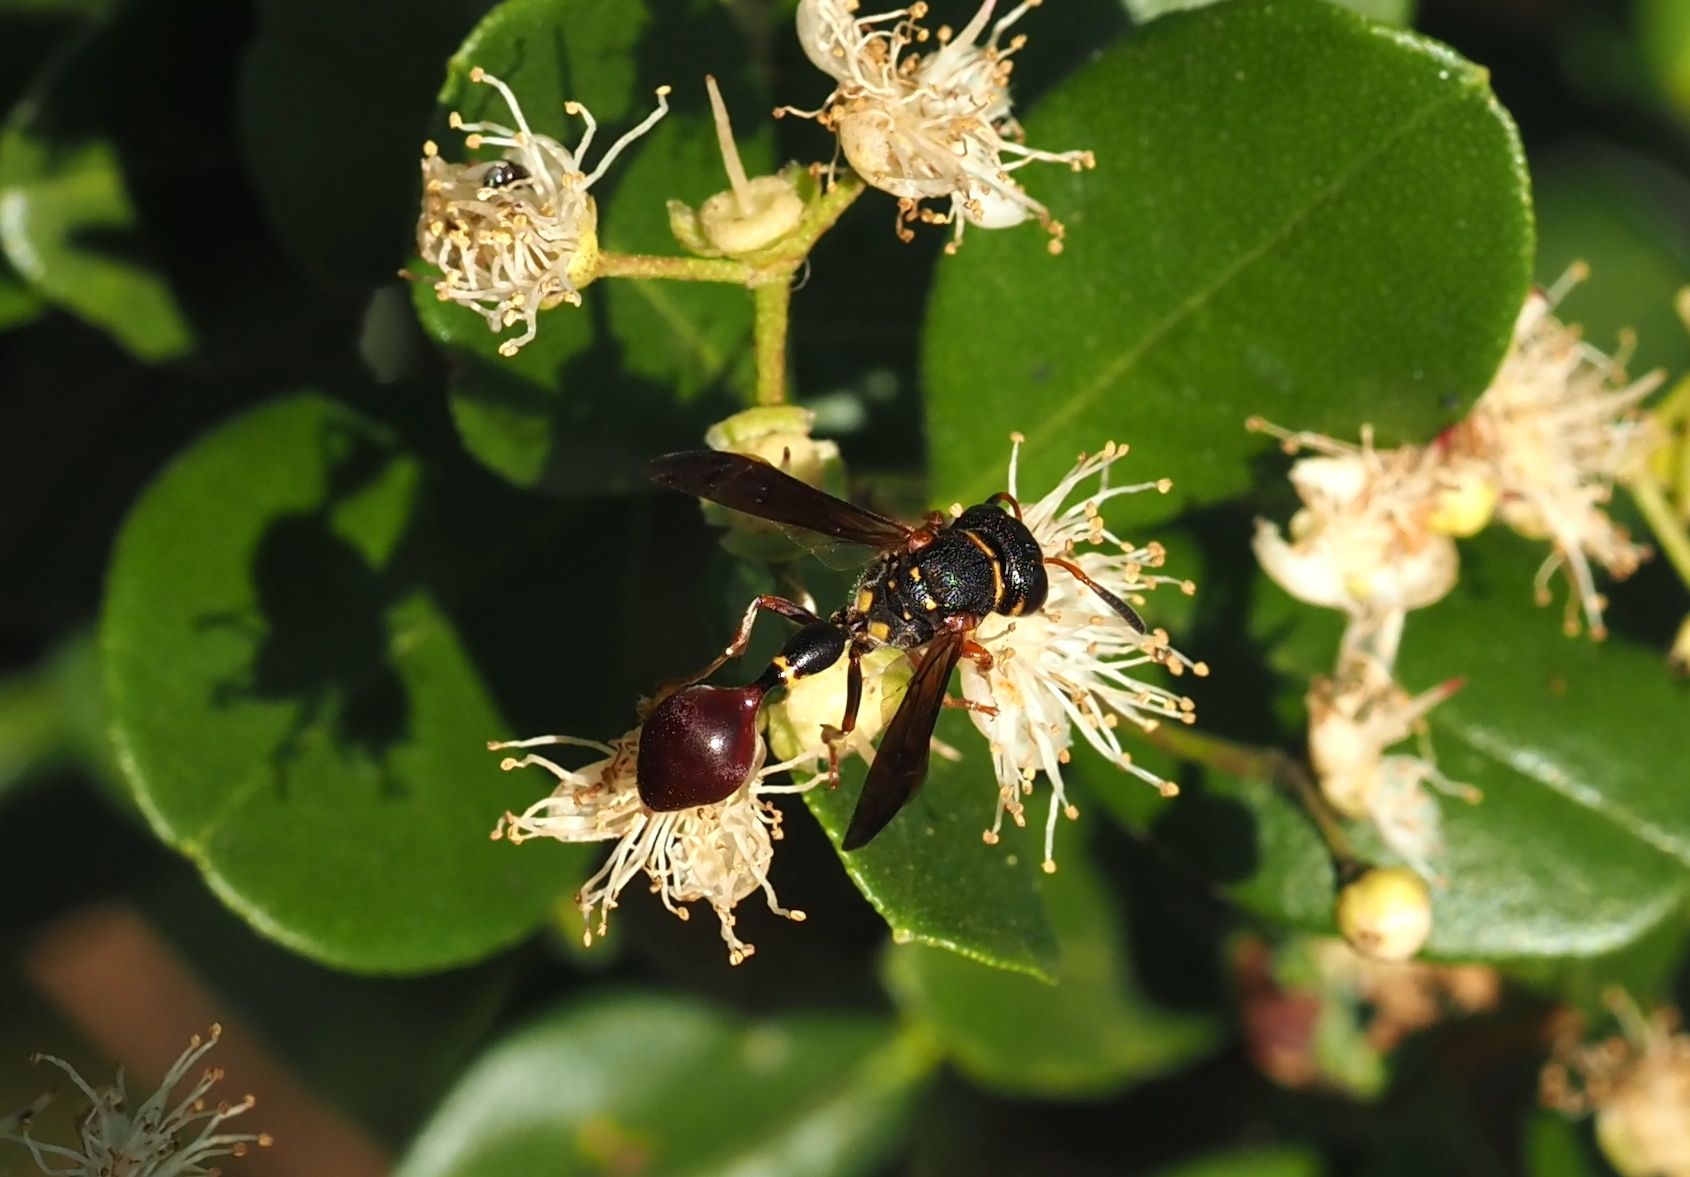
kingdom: Animalia
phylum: Arthropoda
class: Insecta
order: Hymenoptera
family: Eumenidae
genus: Zethus
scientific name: Zethus slossonae
